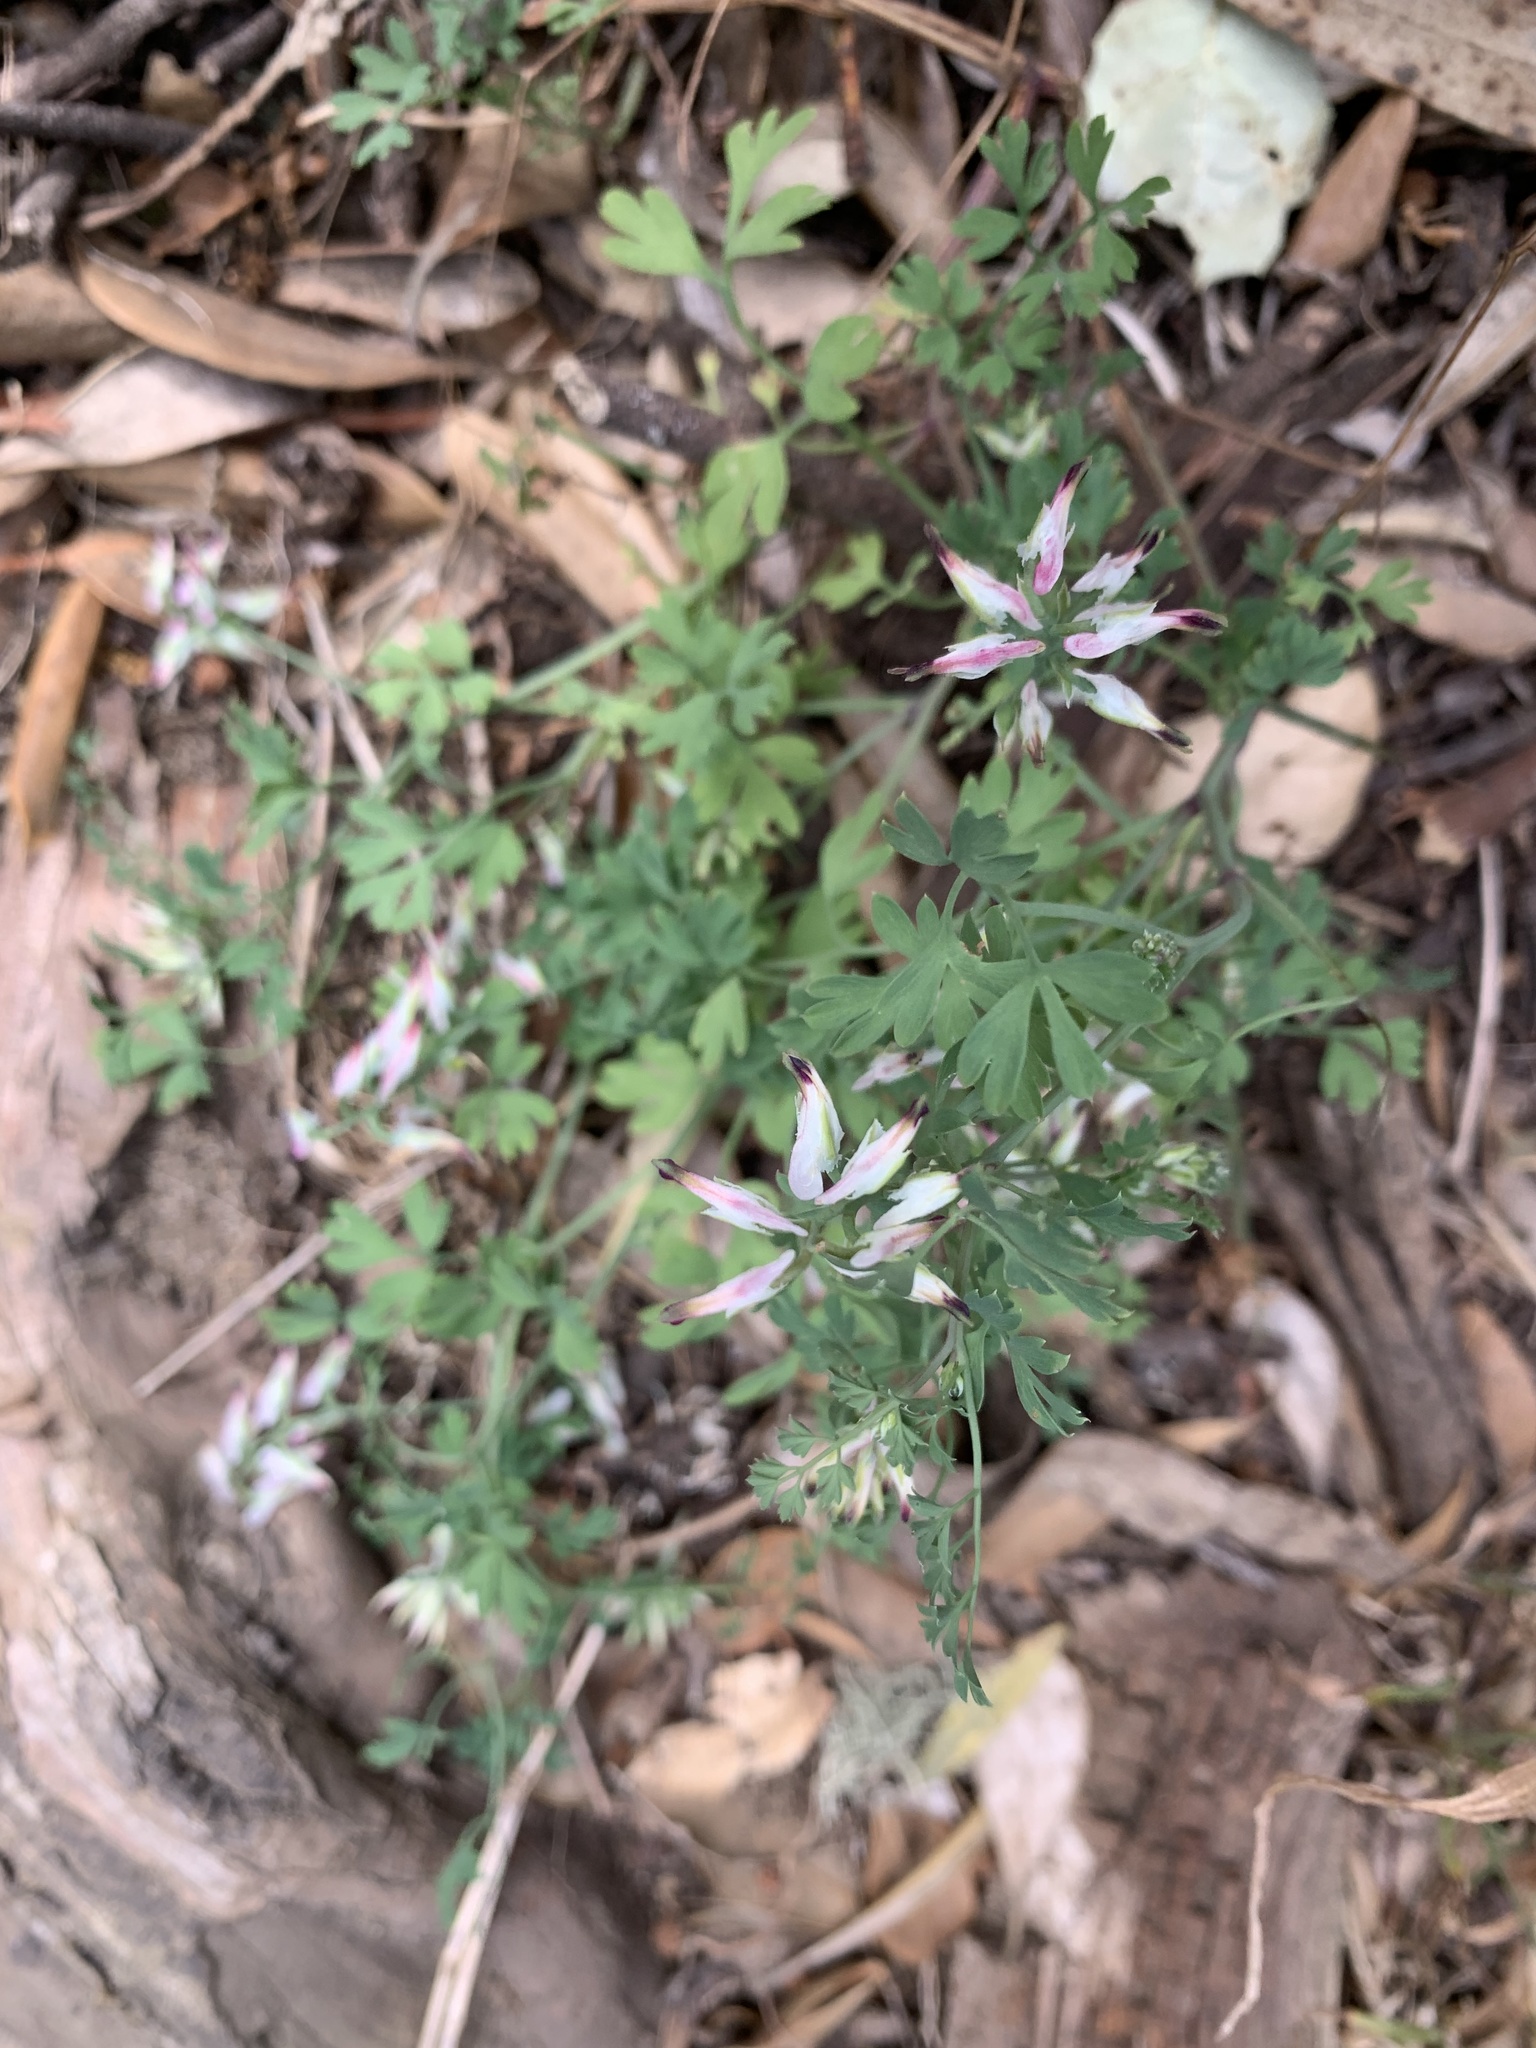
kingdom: Plantae
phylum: Tracheophyta
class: Magnoliopsida
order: Ranunculales
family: Papaveraceae
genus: Fumaria
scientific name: Fumaria capreolata
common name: White ramping-fumitory
